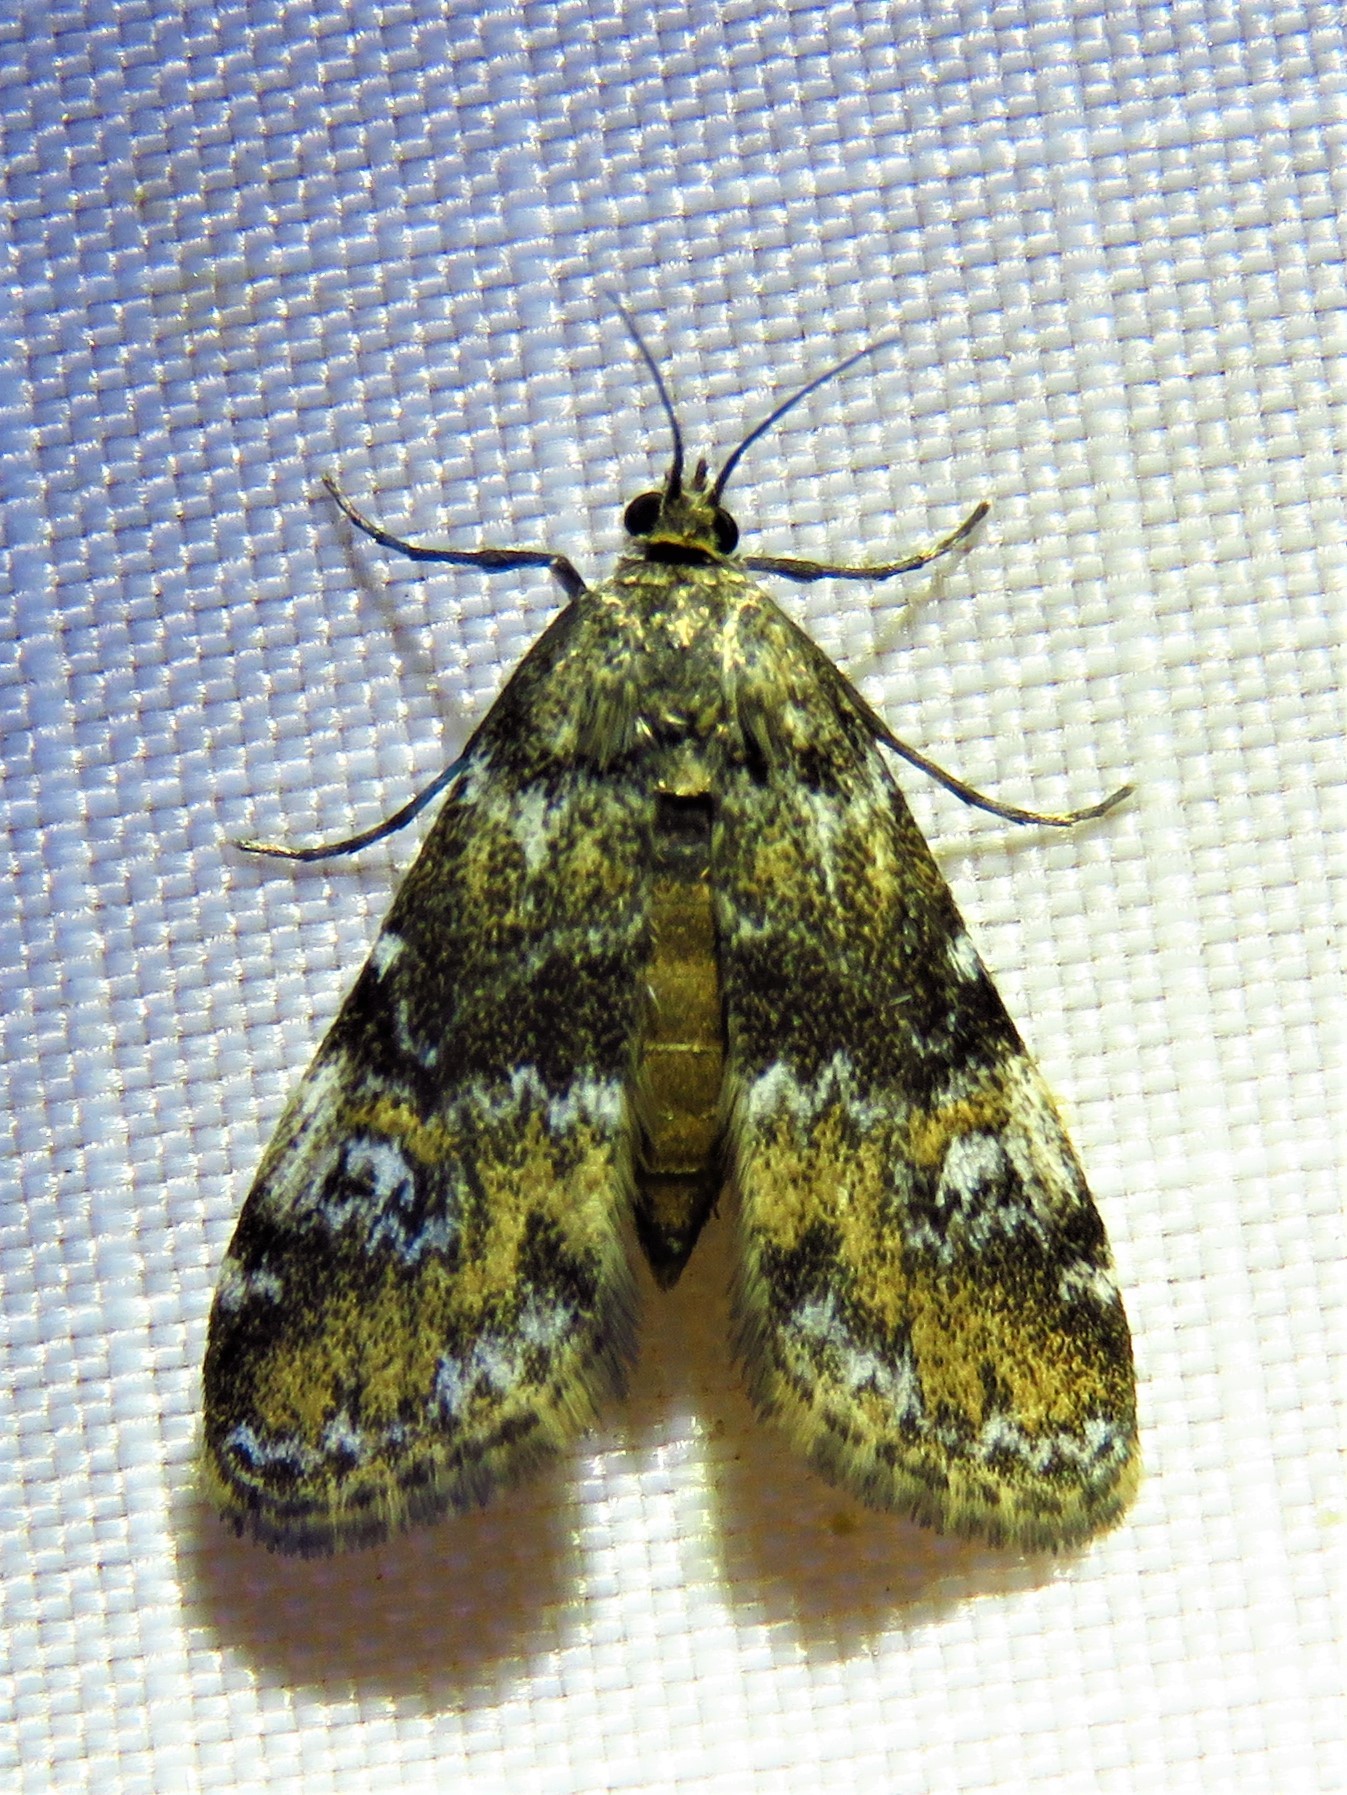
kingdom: Animalia
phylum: Arthropoda
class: Insecta
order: Lepidoptera
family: Crambidae
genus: Elophila
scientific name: Elophila obliteralis
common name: Waterlily leafcutter moth
